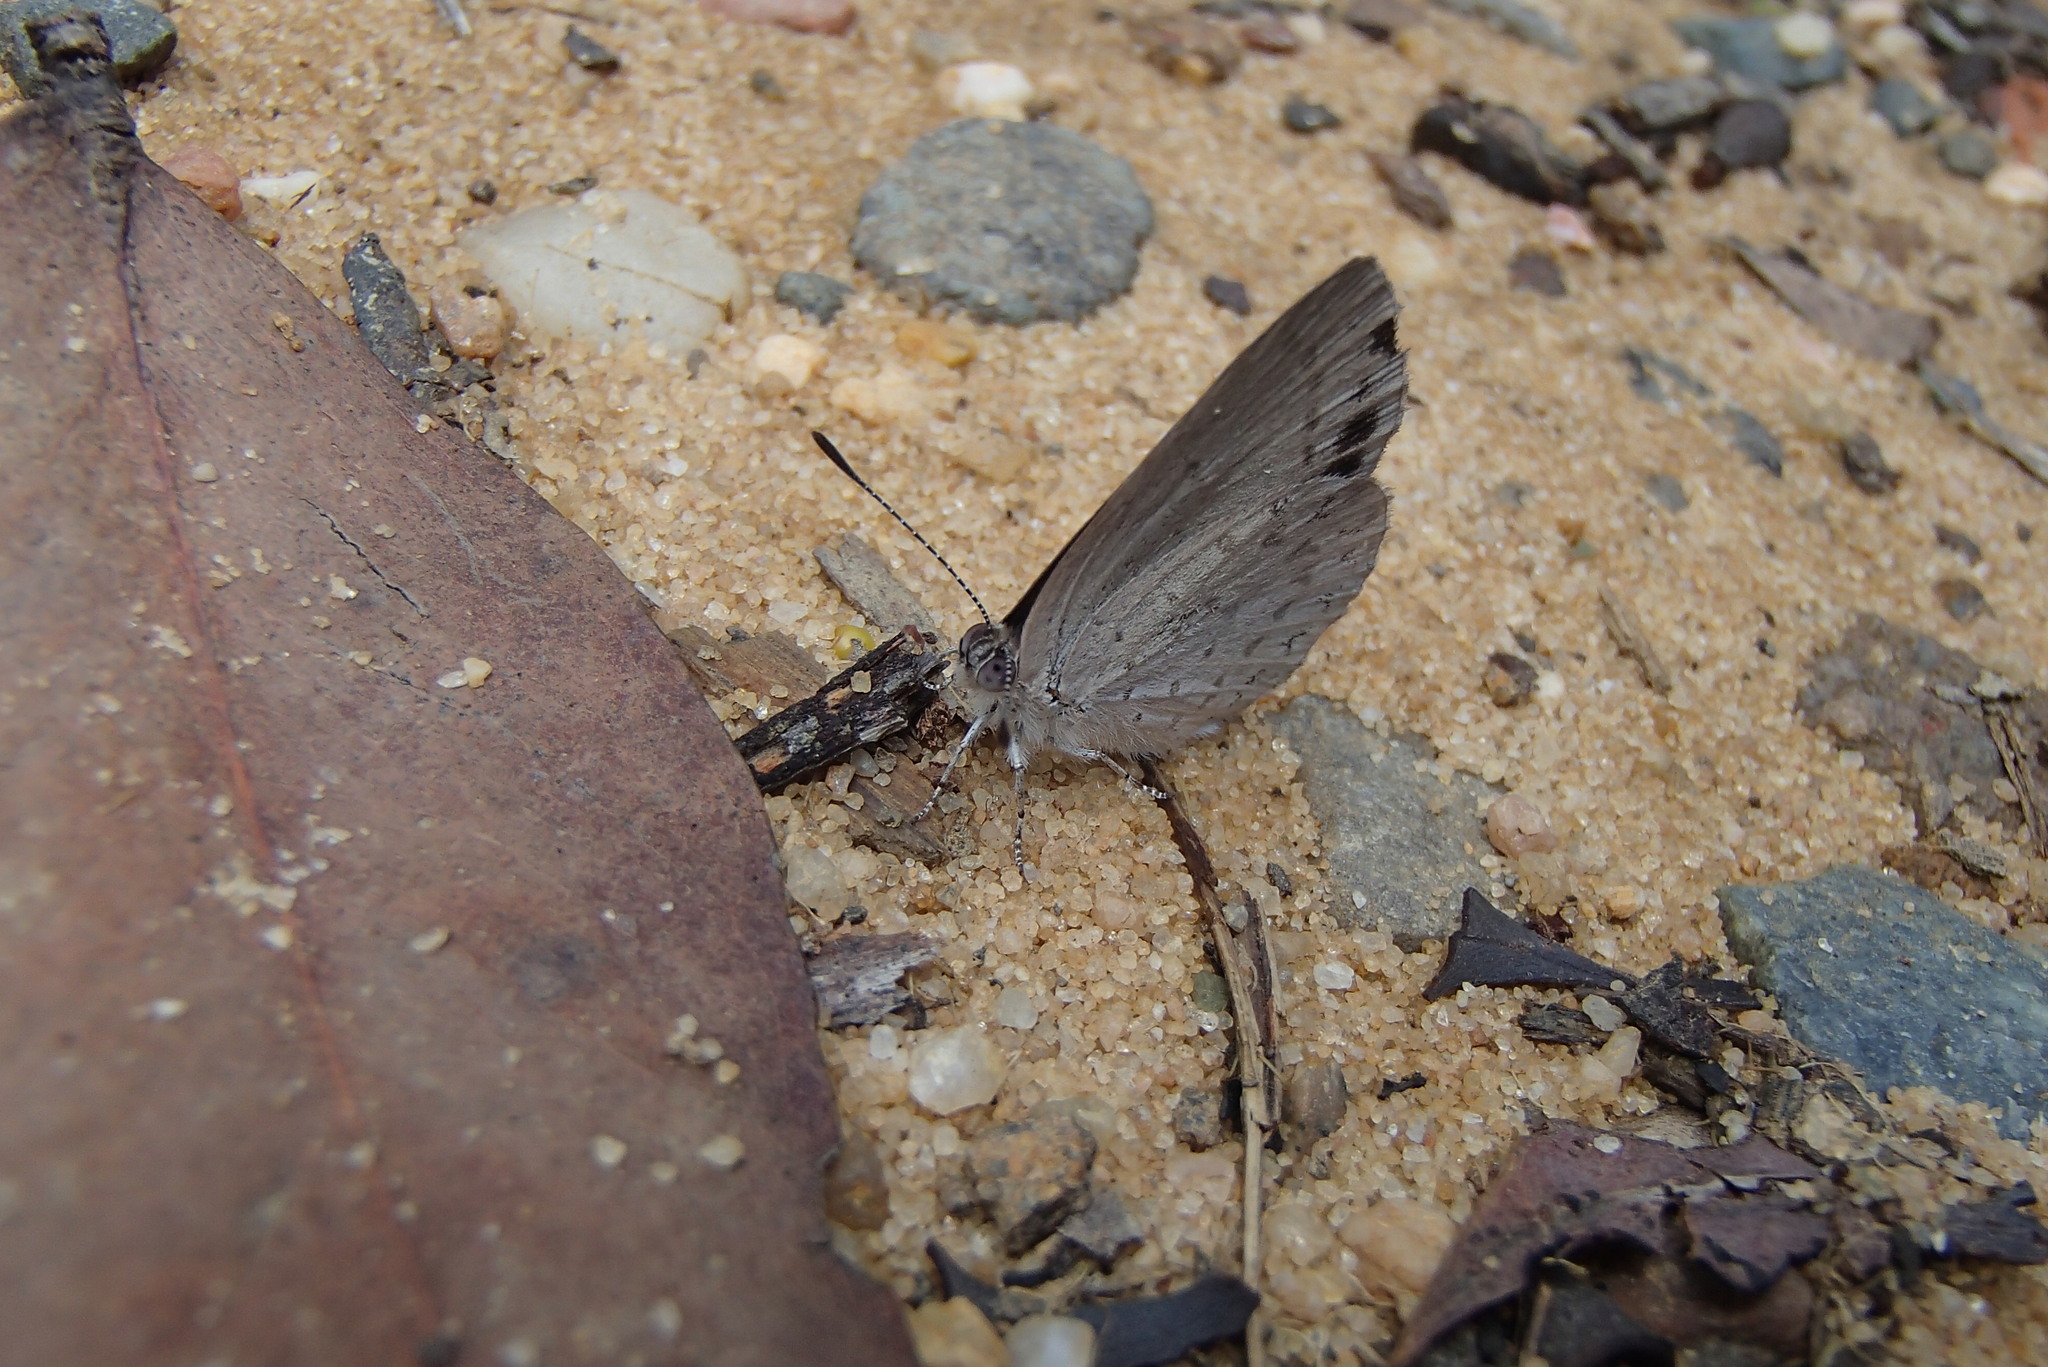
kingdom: Animalia
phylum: Arthropoda
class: Insecta
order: Lepidoptera
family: Lycaenidae
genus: Candalides
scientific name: Candalides
